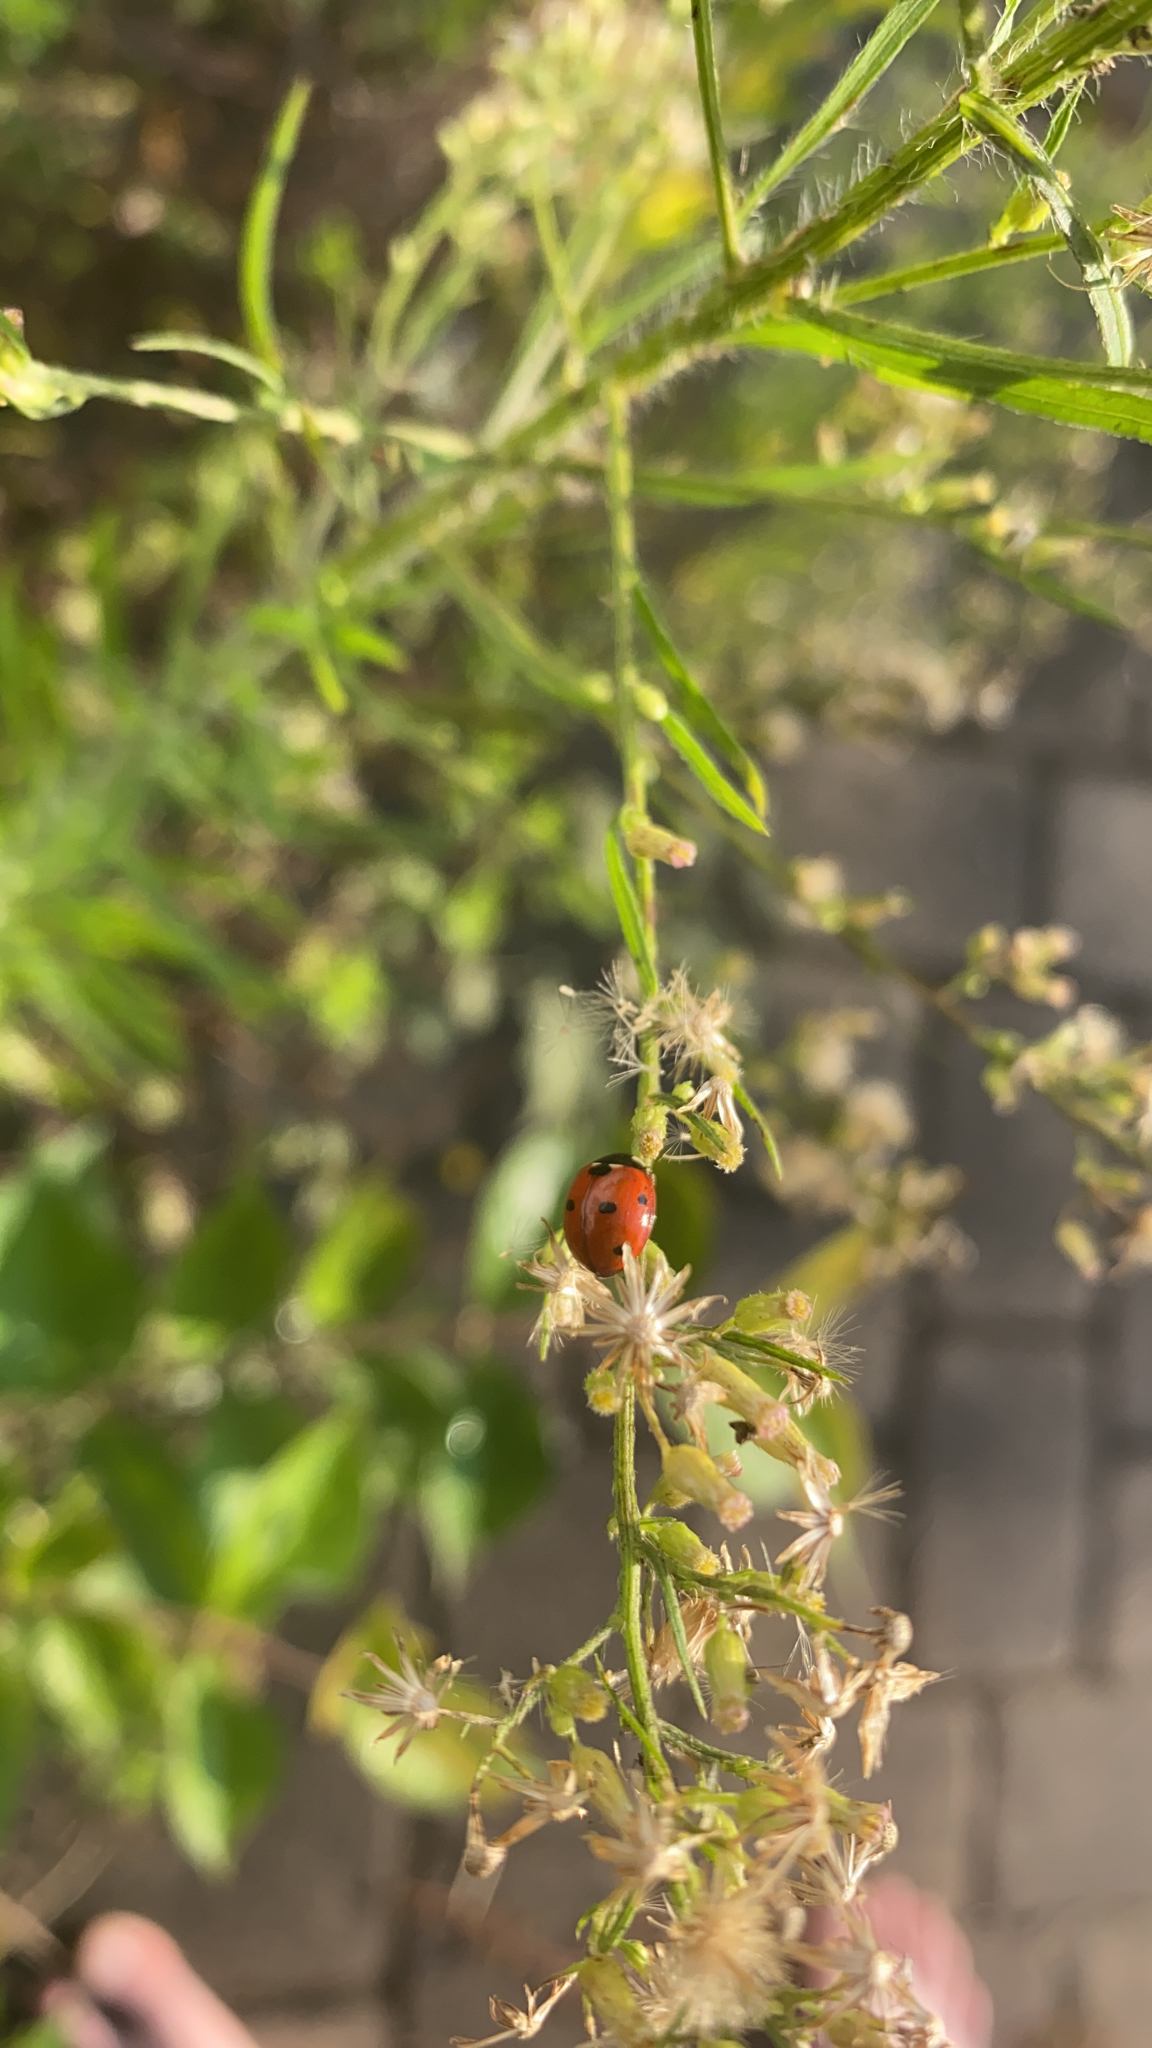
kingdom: Animalia
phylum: Arthropoda
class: Insecta
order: Coleoptera
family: Coccinellidae
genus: Coccinella
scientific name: Coccinella septempunctata
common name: Sevenspotted lady beetle
